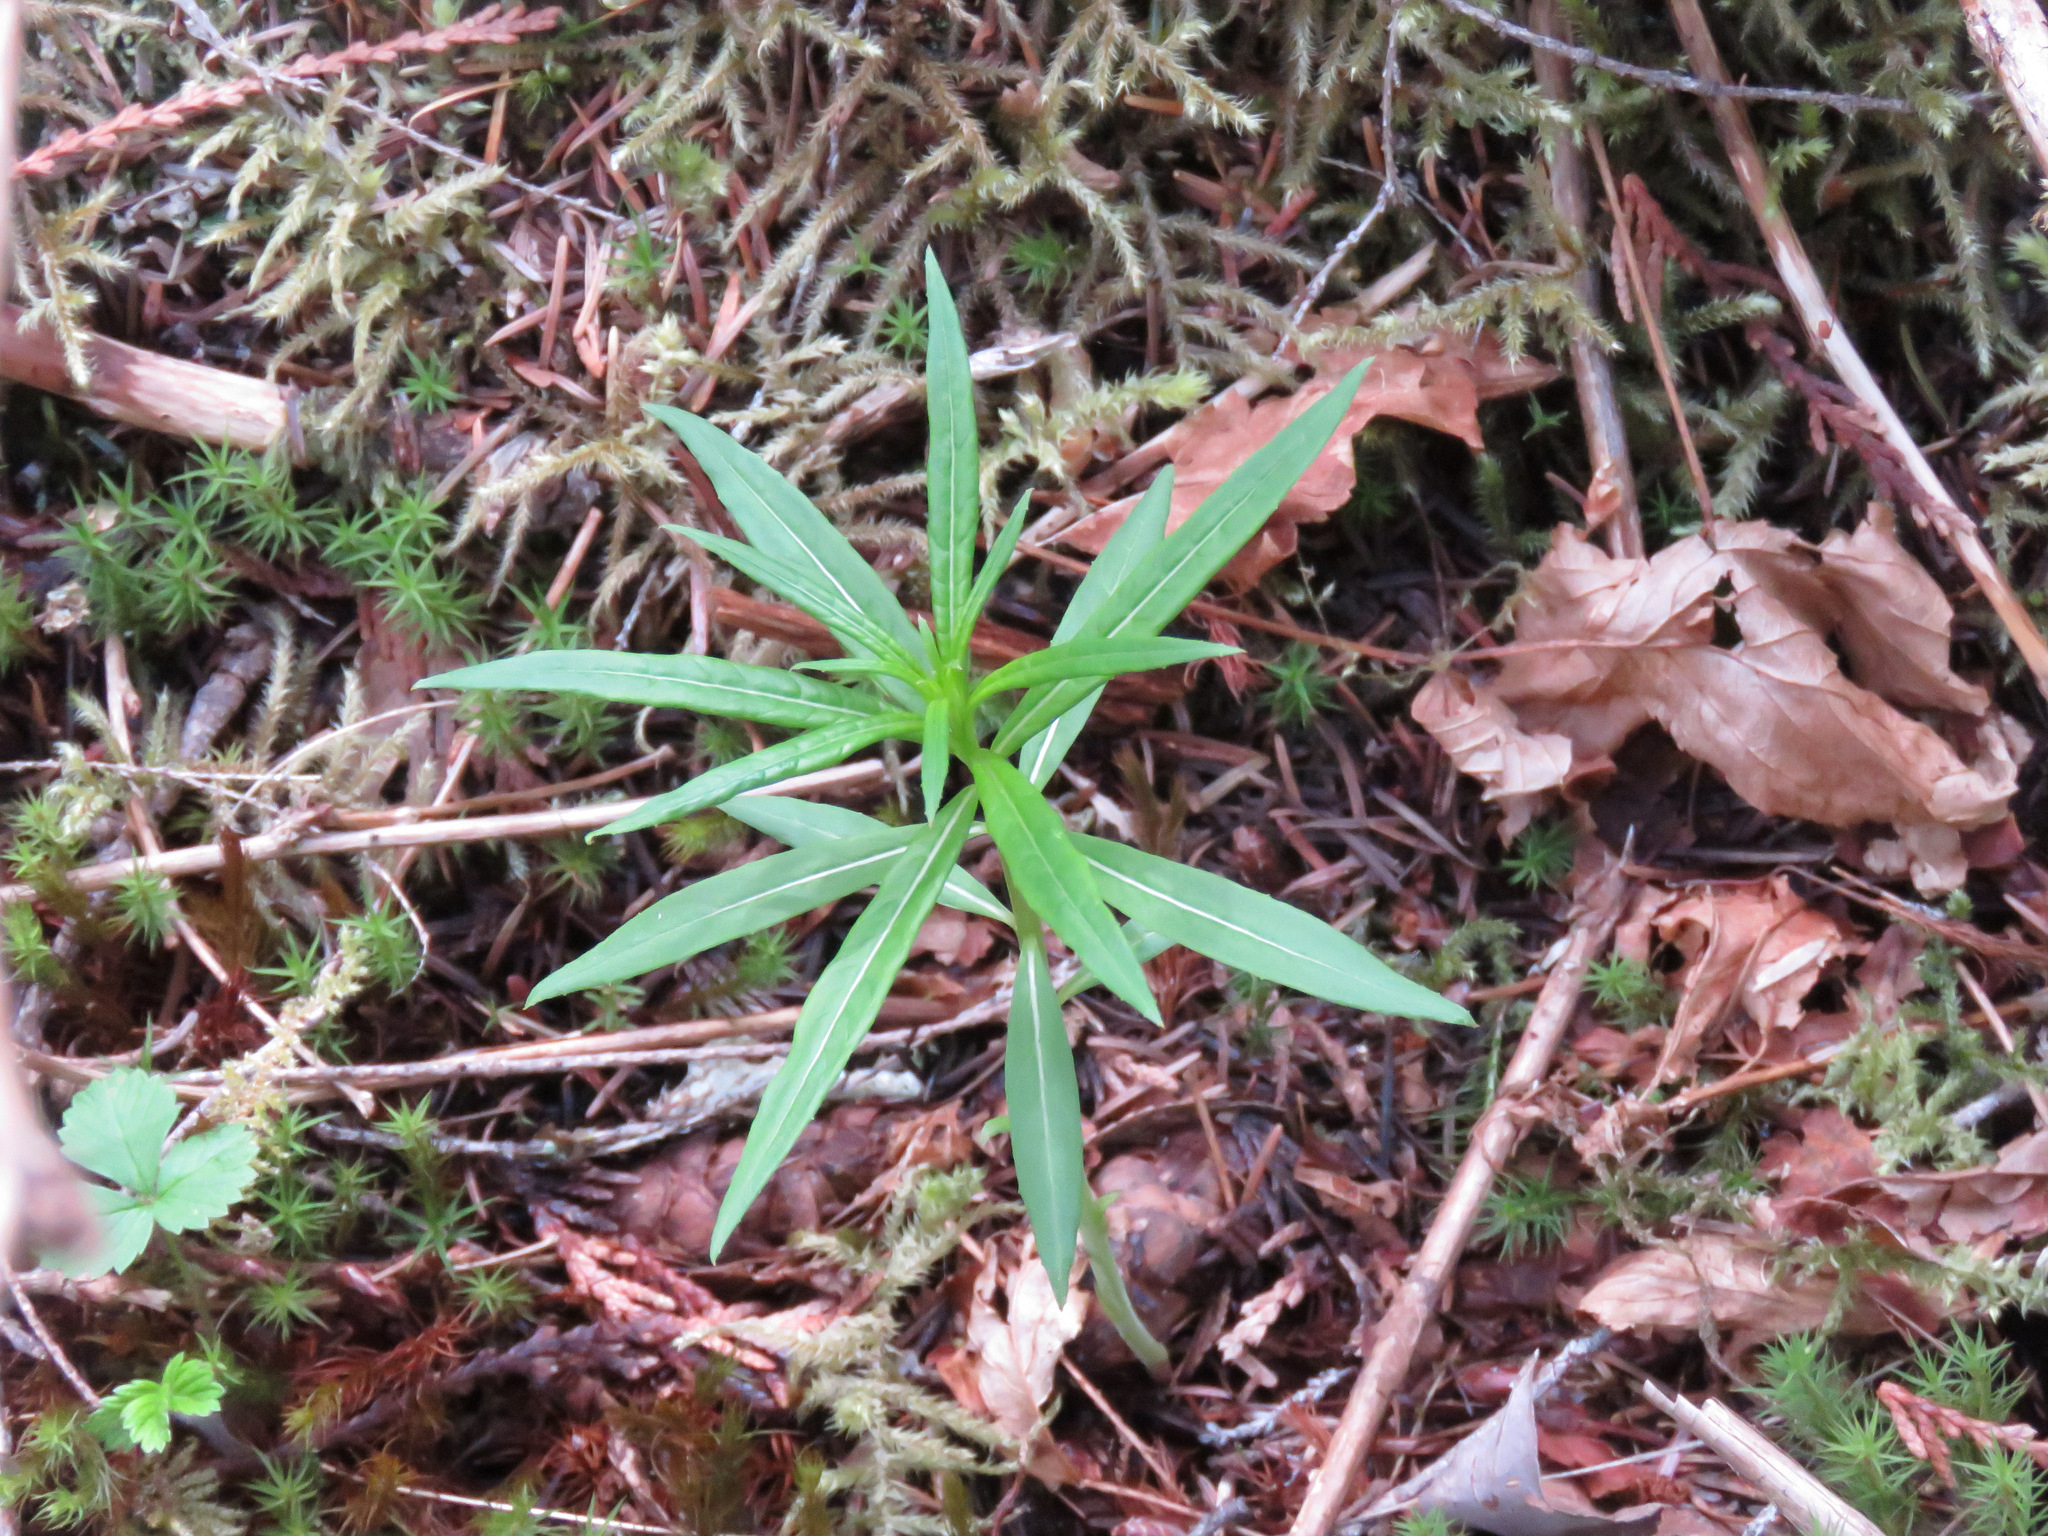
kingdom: Plantae
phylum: Tracheophyta
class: Magnoliopsida
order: Myrtales
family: Onagraceae
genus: Chamaenerion
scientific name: Chamaenerion angustifolium
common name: Fireweed
